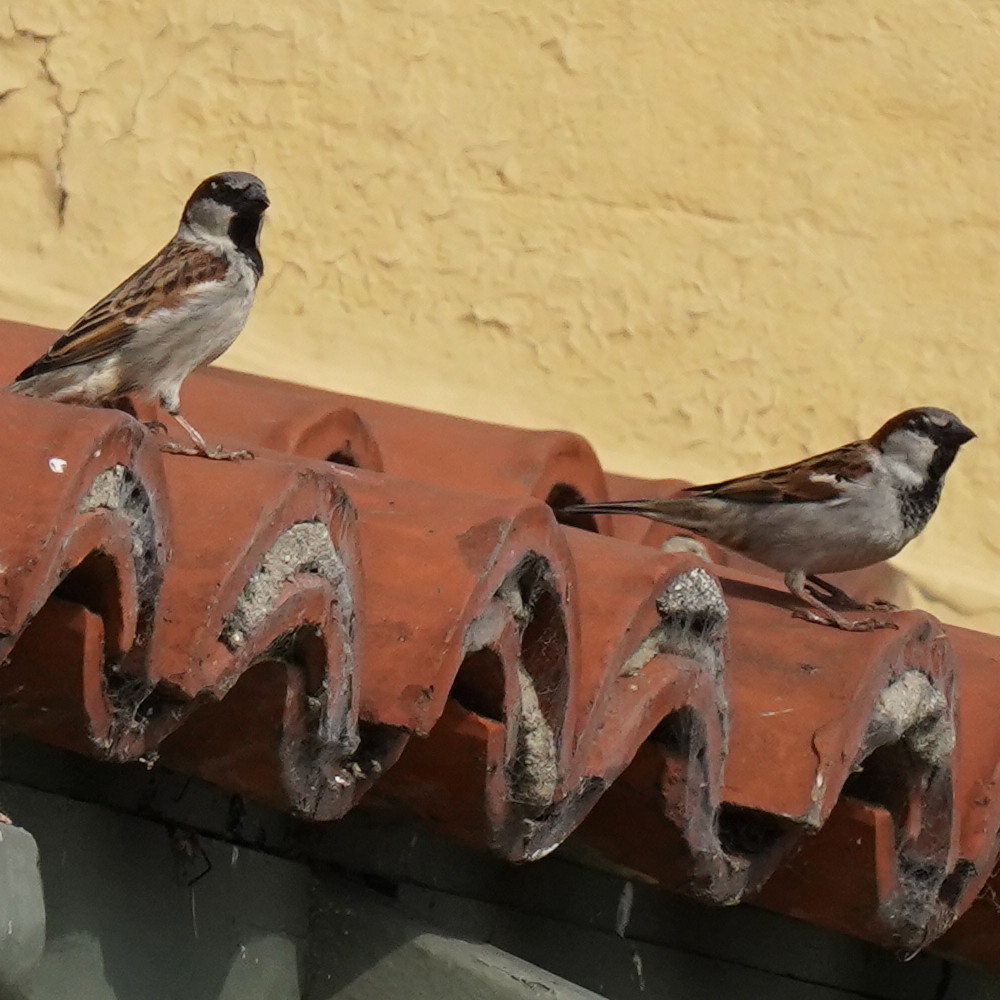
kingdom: Animalia
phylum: Chordata
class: Aves
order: Passeriformes
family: Passeridae
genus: Passer
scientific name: Passer domesticus
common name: House sparrow
